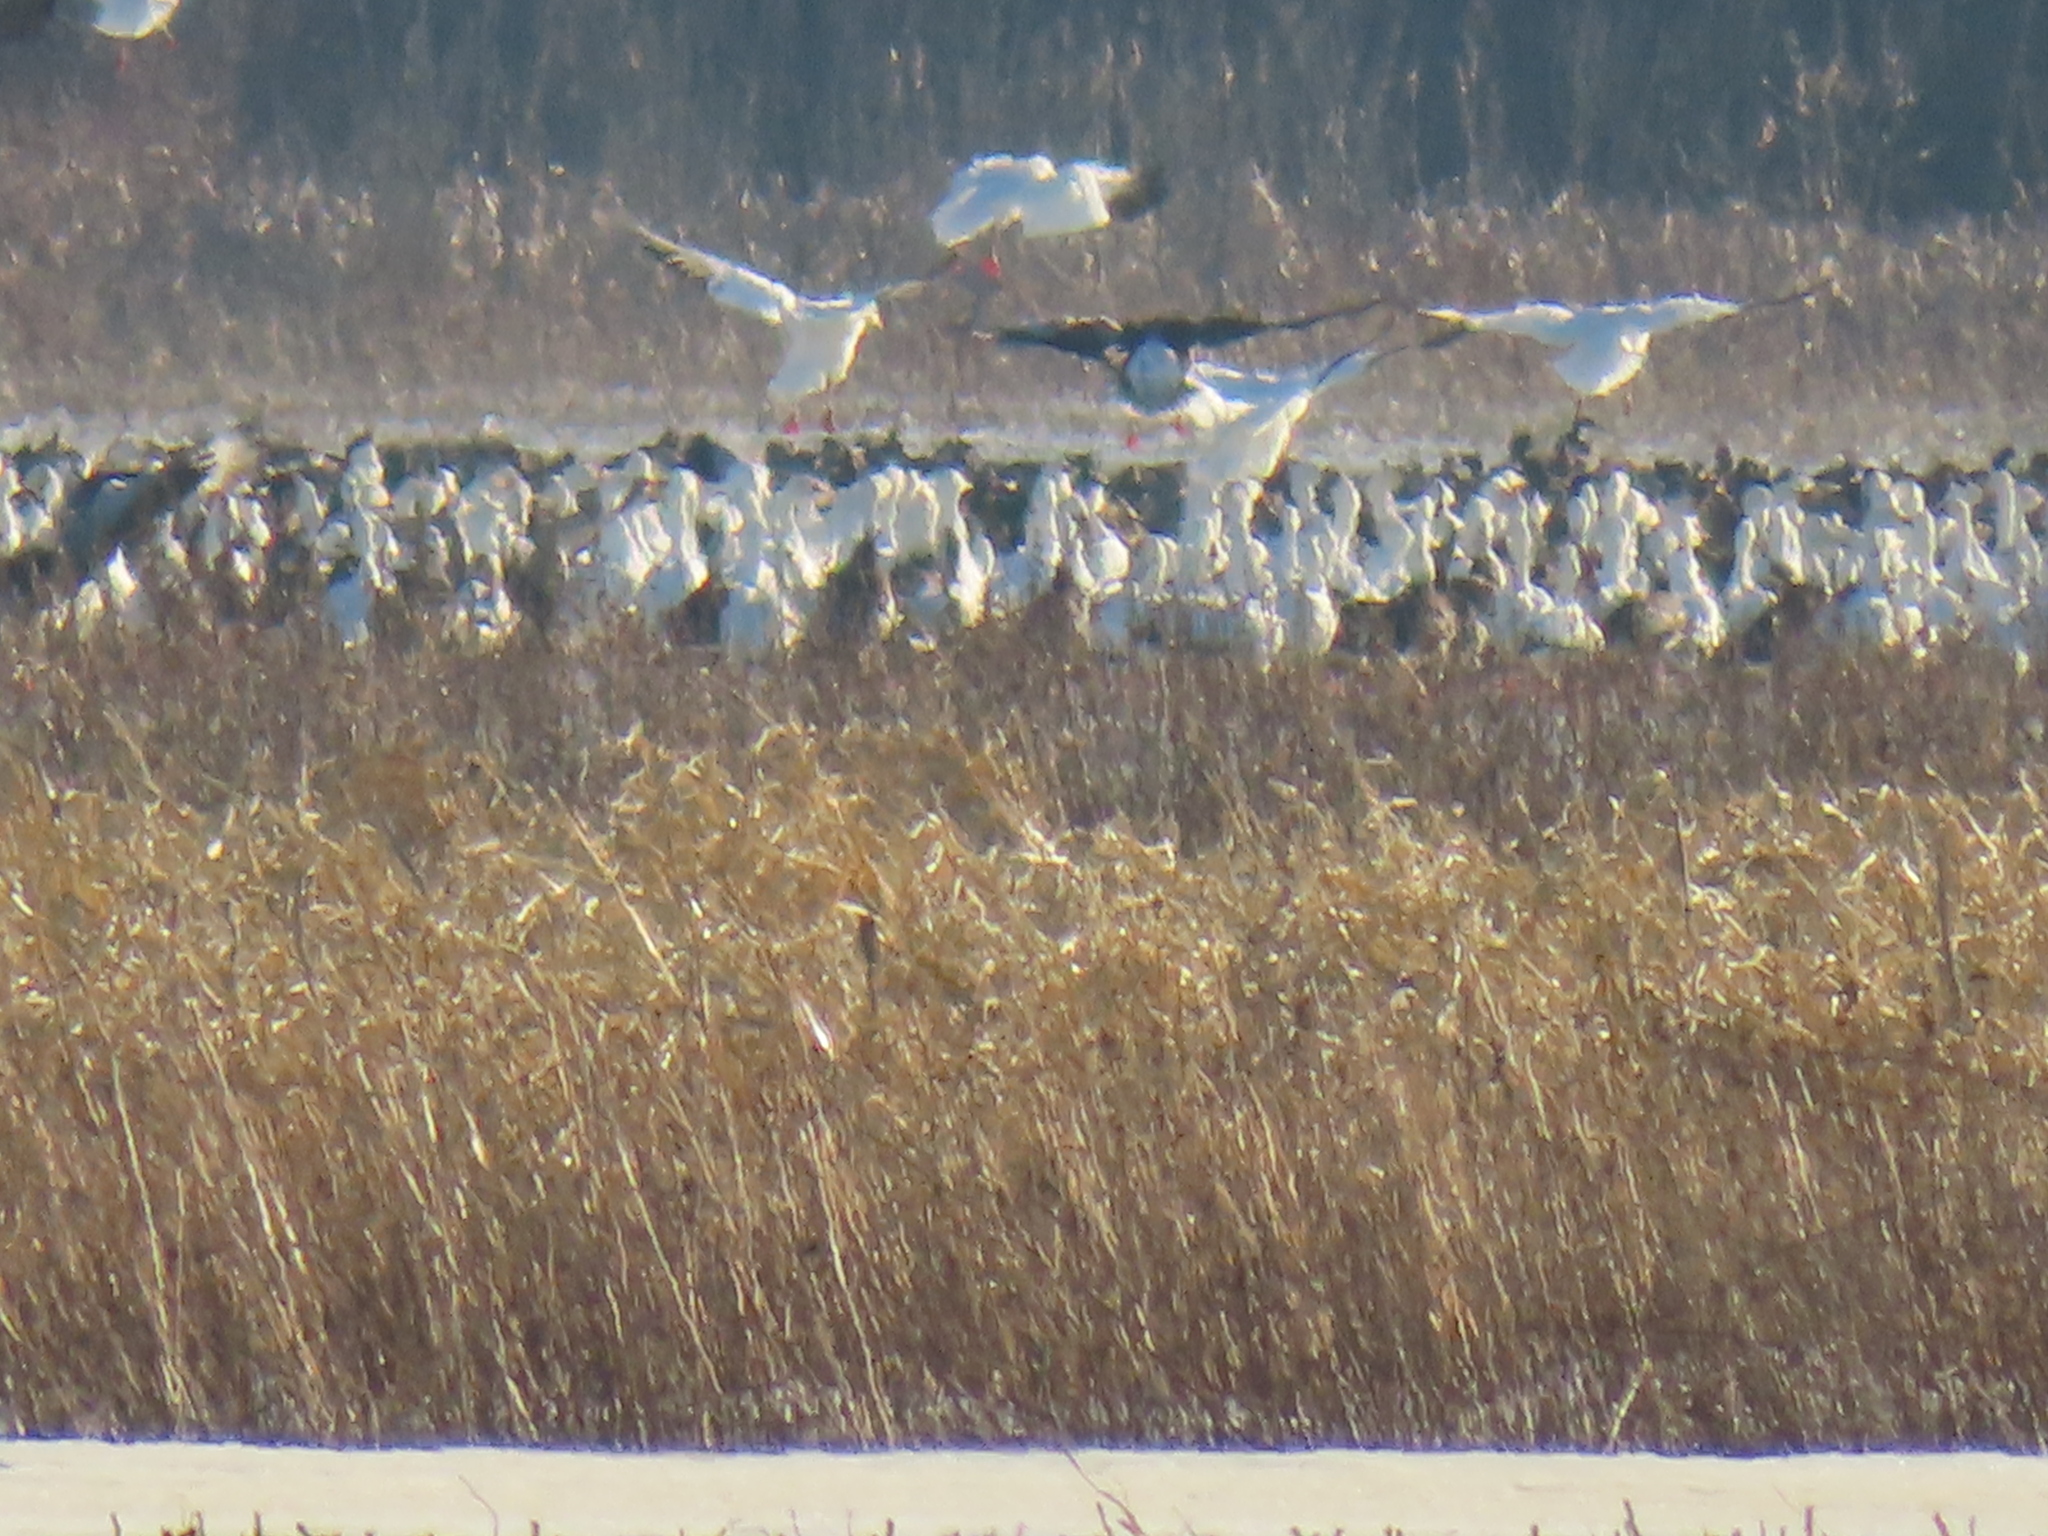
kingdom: Animalia
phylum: Chordata
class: Aves
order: Anseriformes
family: Anatidae
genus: Anser
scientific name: Anser caerulescens
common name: Snow goose
